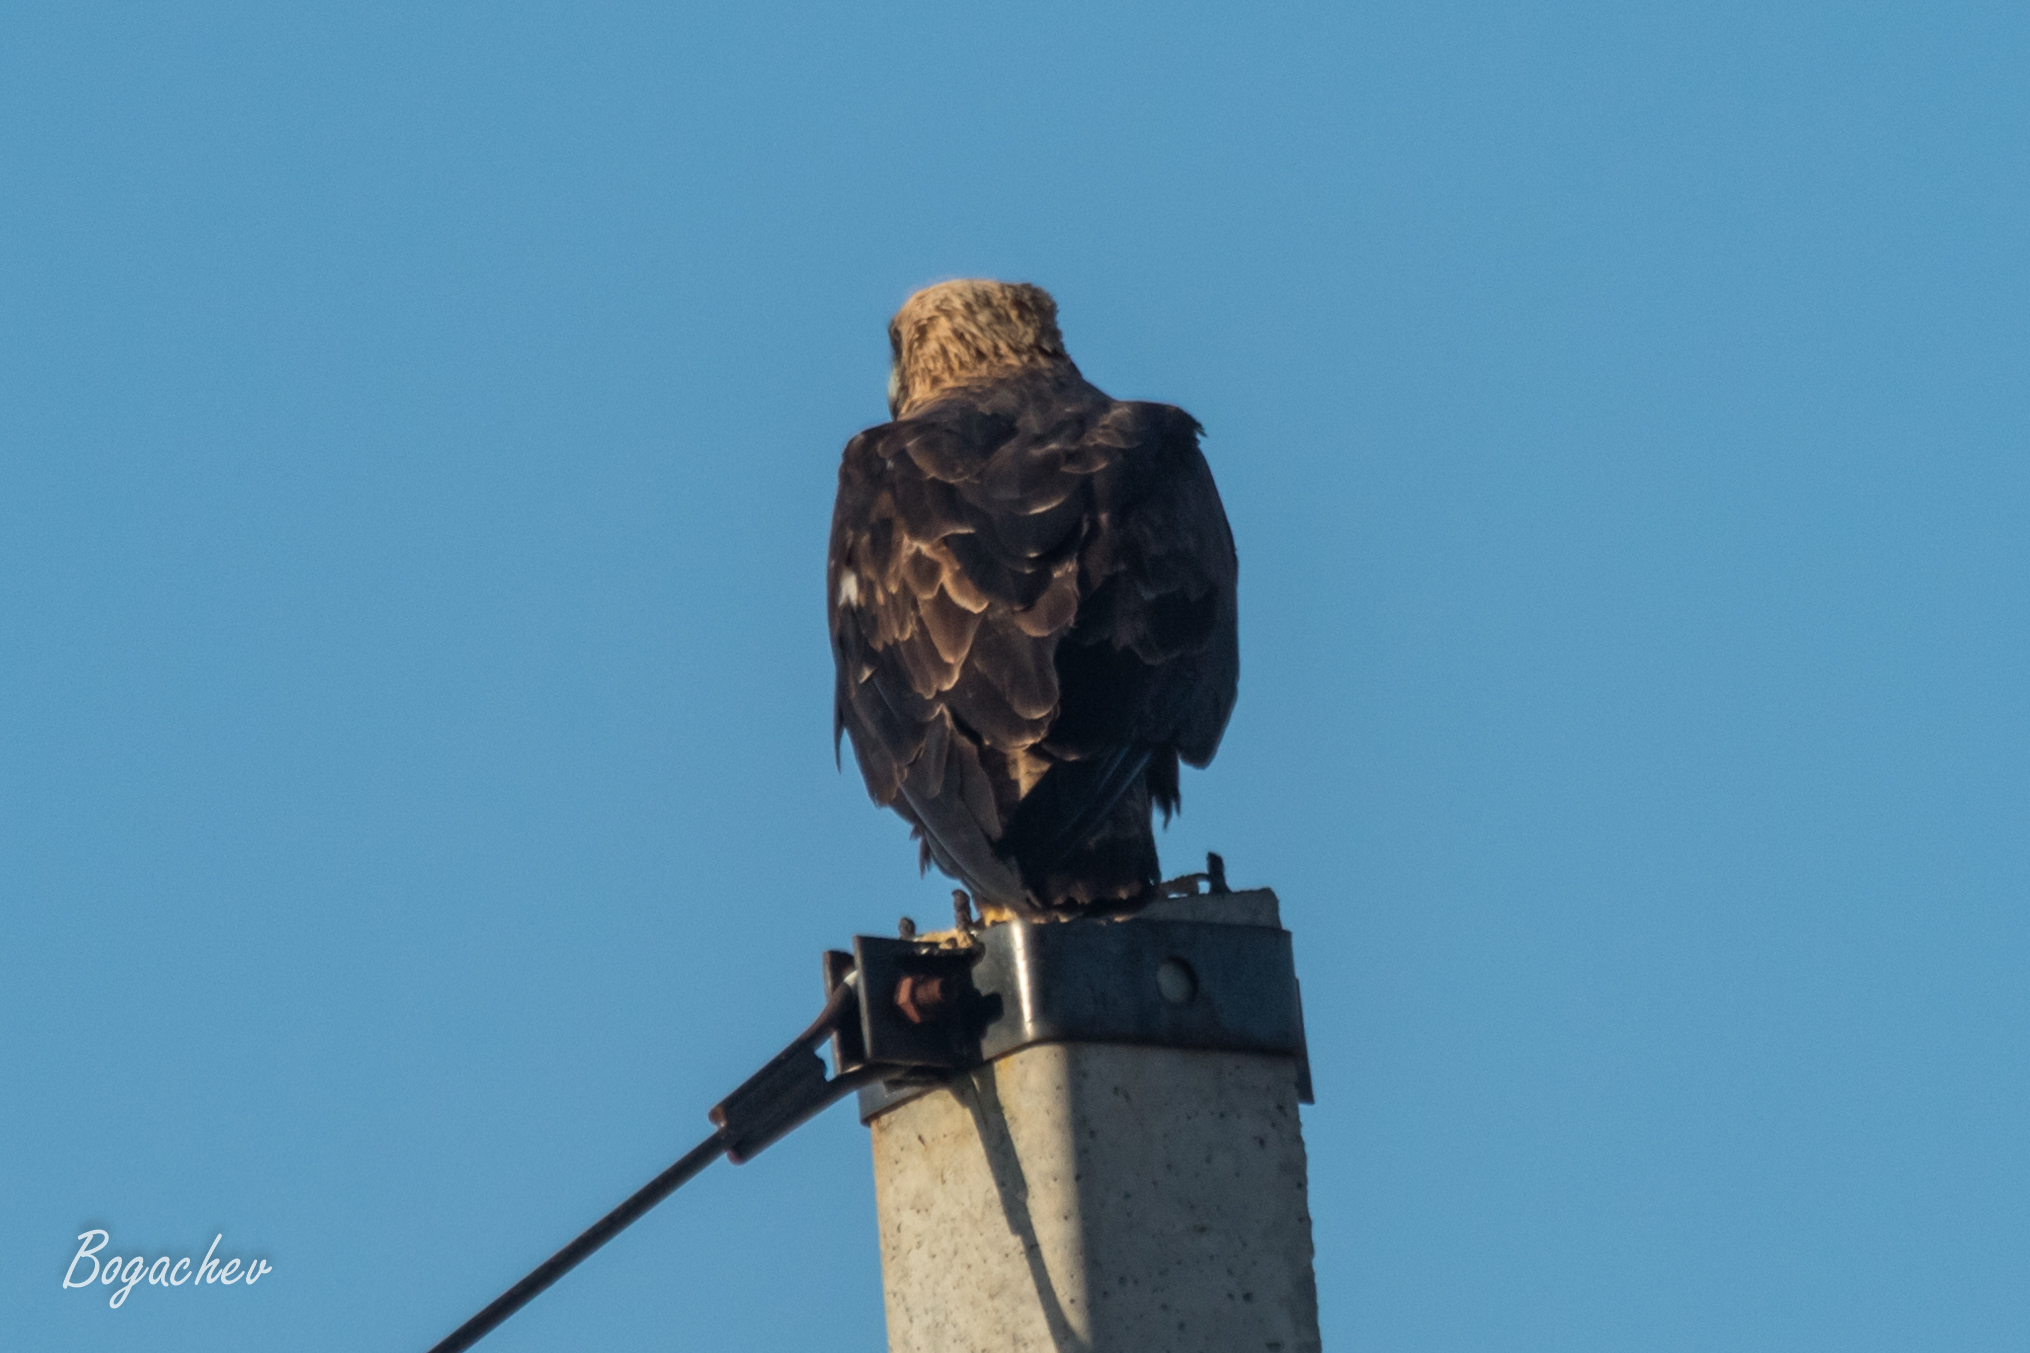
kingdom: Animalia
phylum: Chordata
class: Aves
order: Accipitriformes
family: Accipitridae
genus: Aquila
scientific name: Aquila heliaca
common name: Eastern imperial eagle
